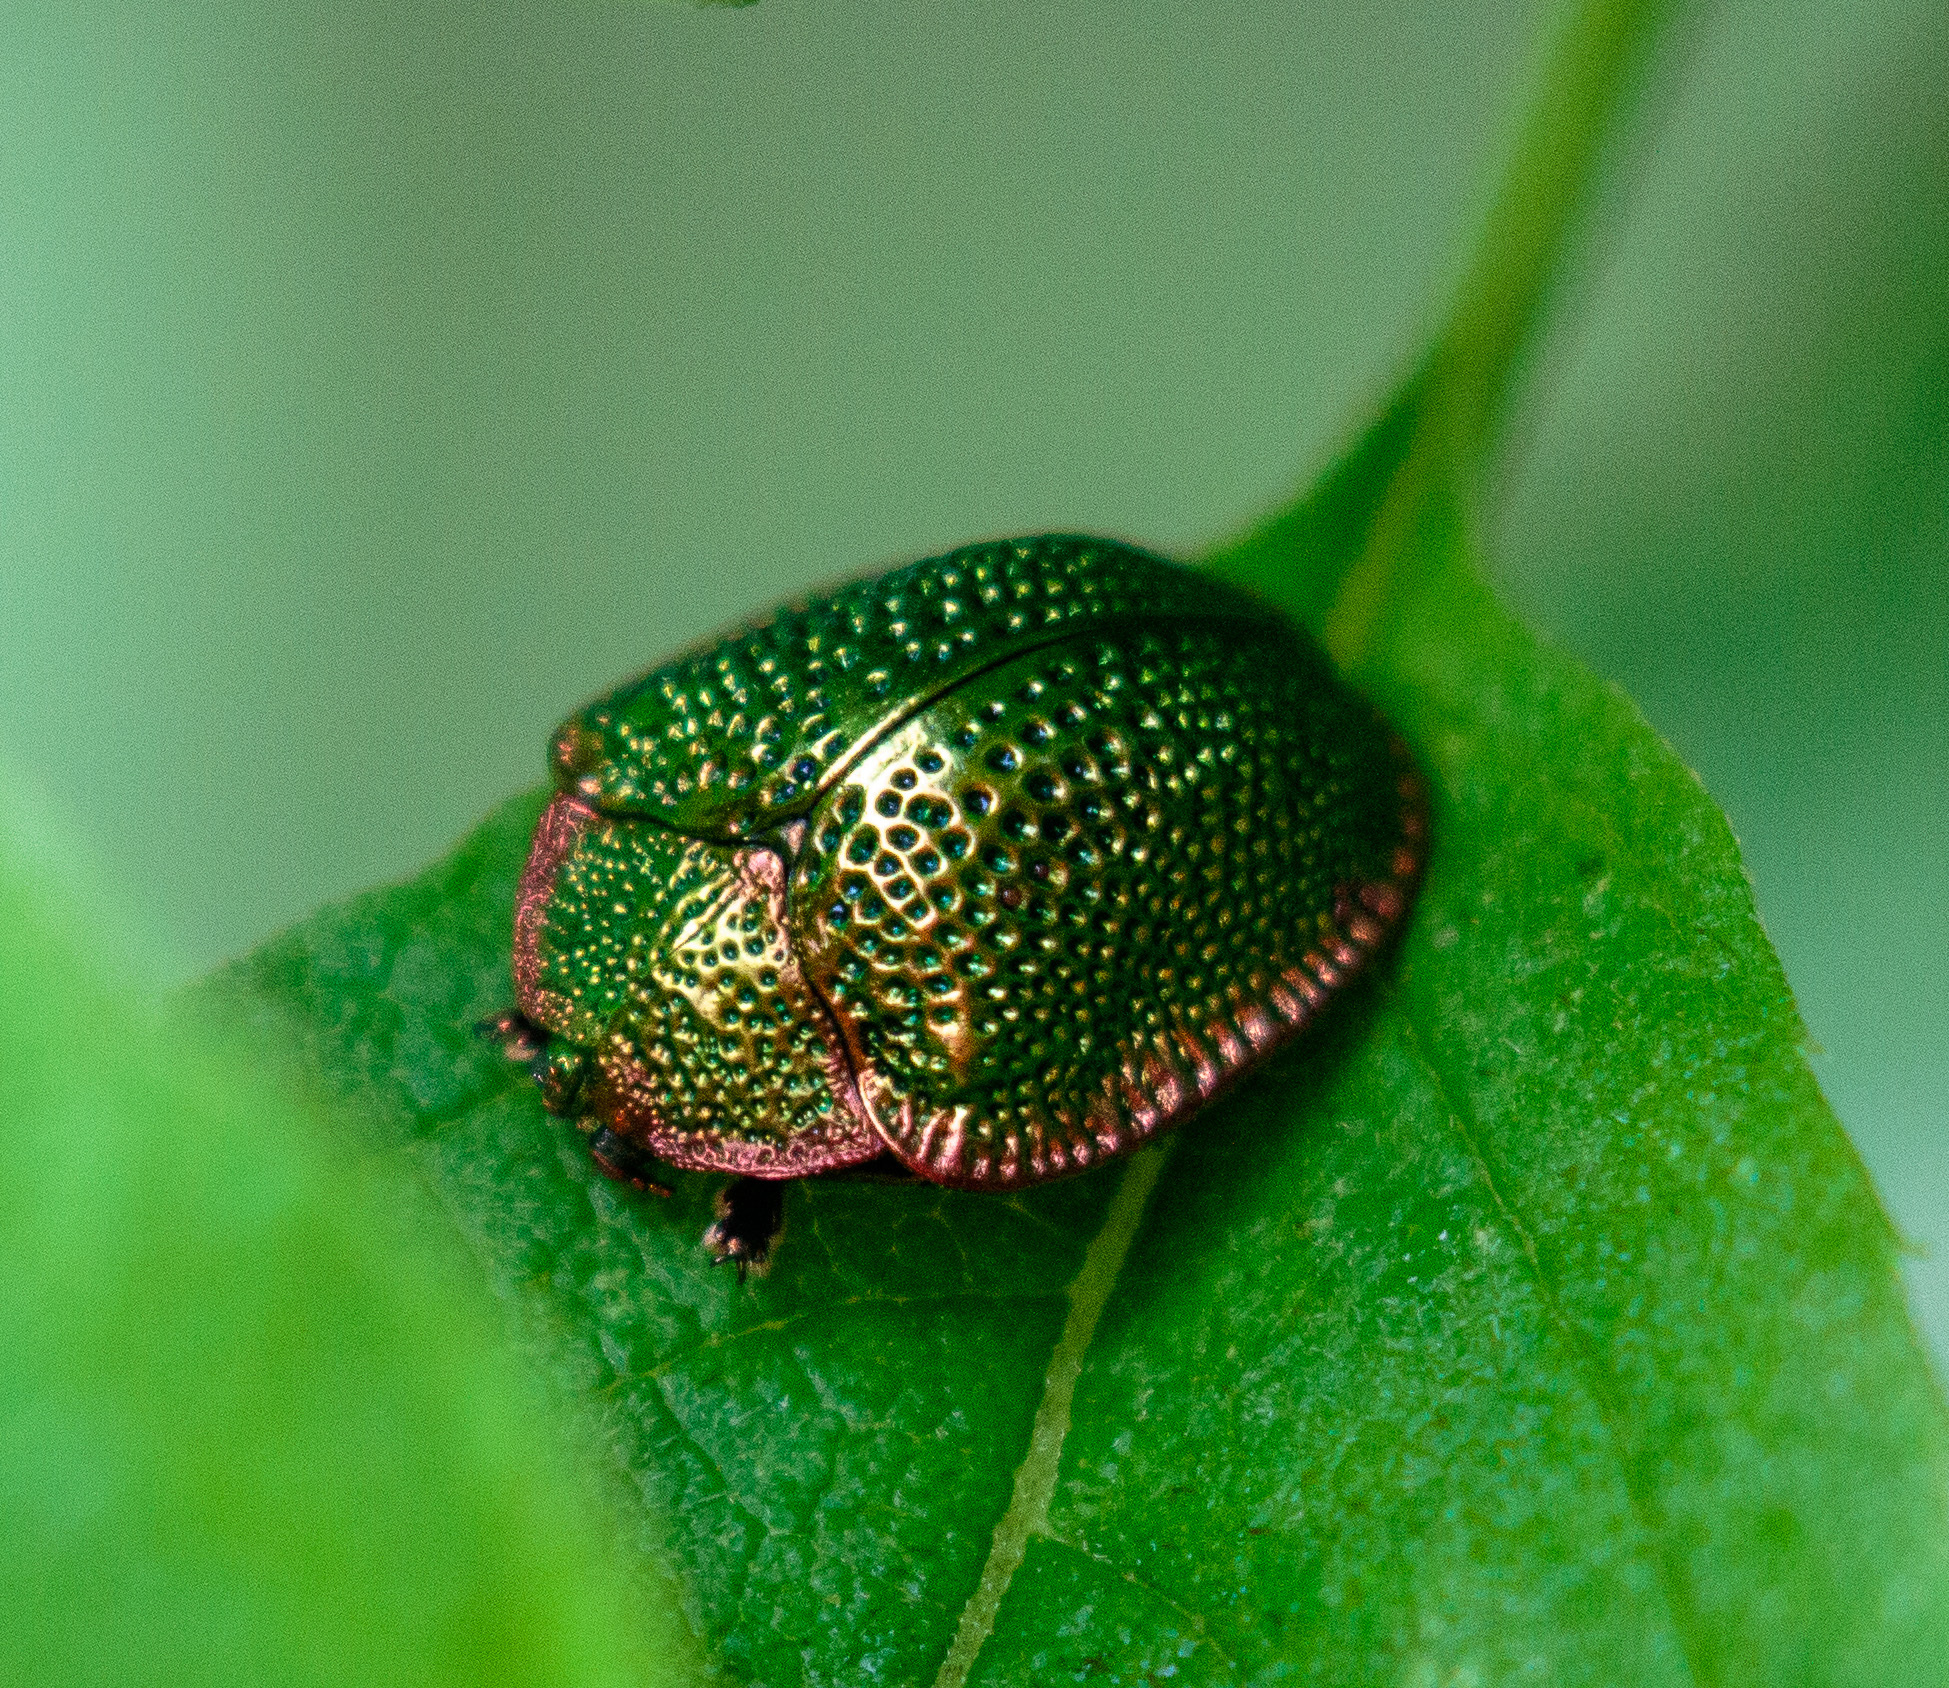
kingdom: Animalia
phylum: Arthropoda
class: Insecta
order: Coleoptera
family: Chrysomelidae
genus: Polychalca
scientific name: Polychalca punctatissima
